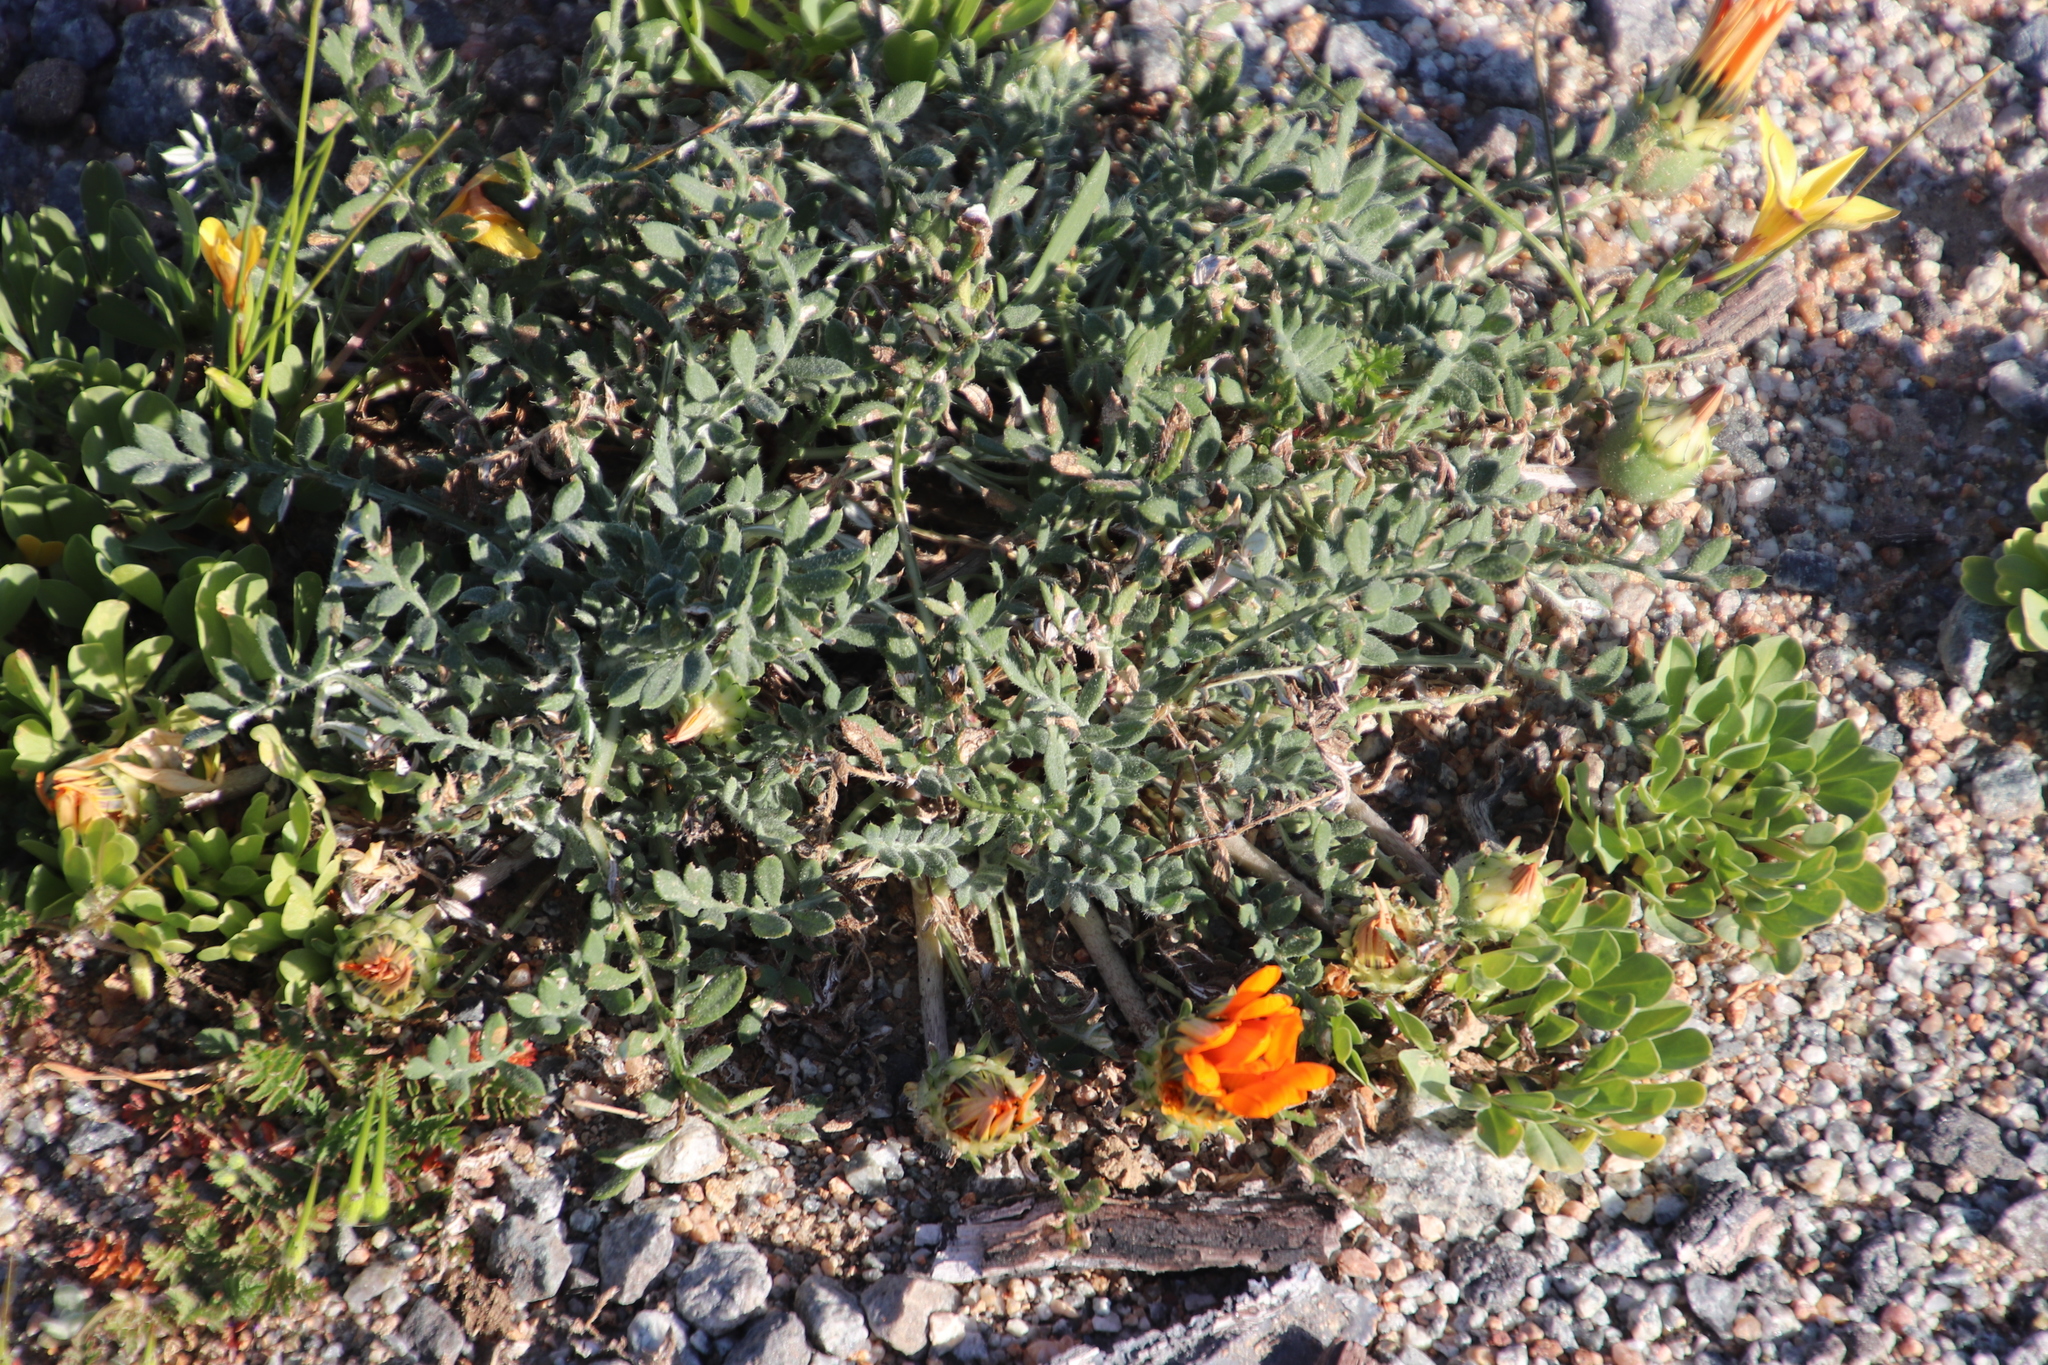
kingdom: Plantae
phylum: Tracheophyta
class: Magnoliopsida
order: Asterales
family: Asteraceae
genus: Gazania
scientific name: Gazania leiopoda
